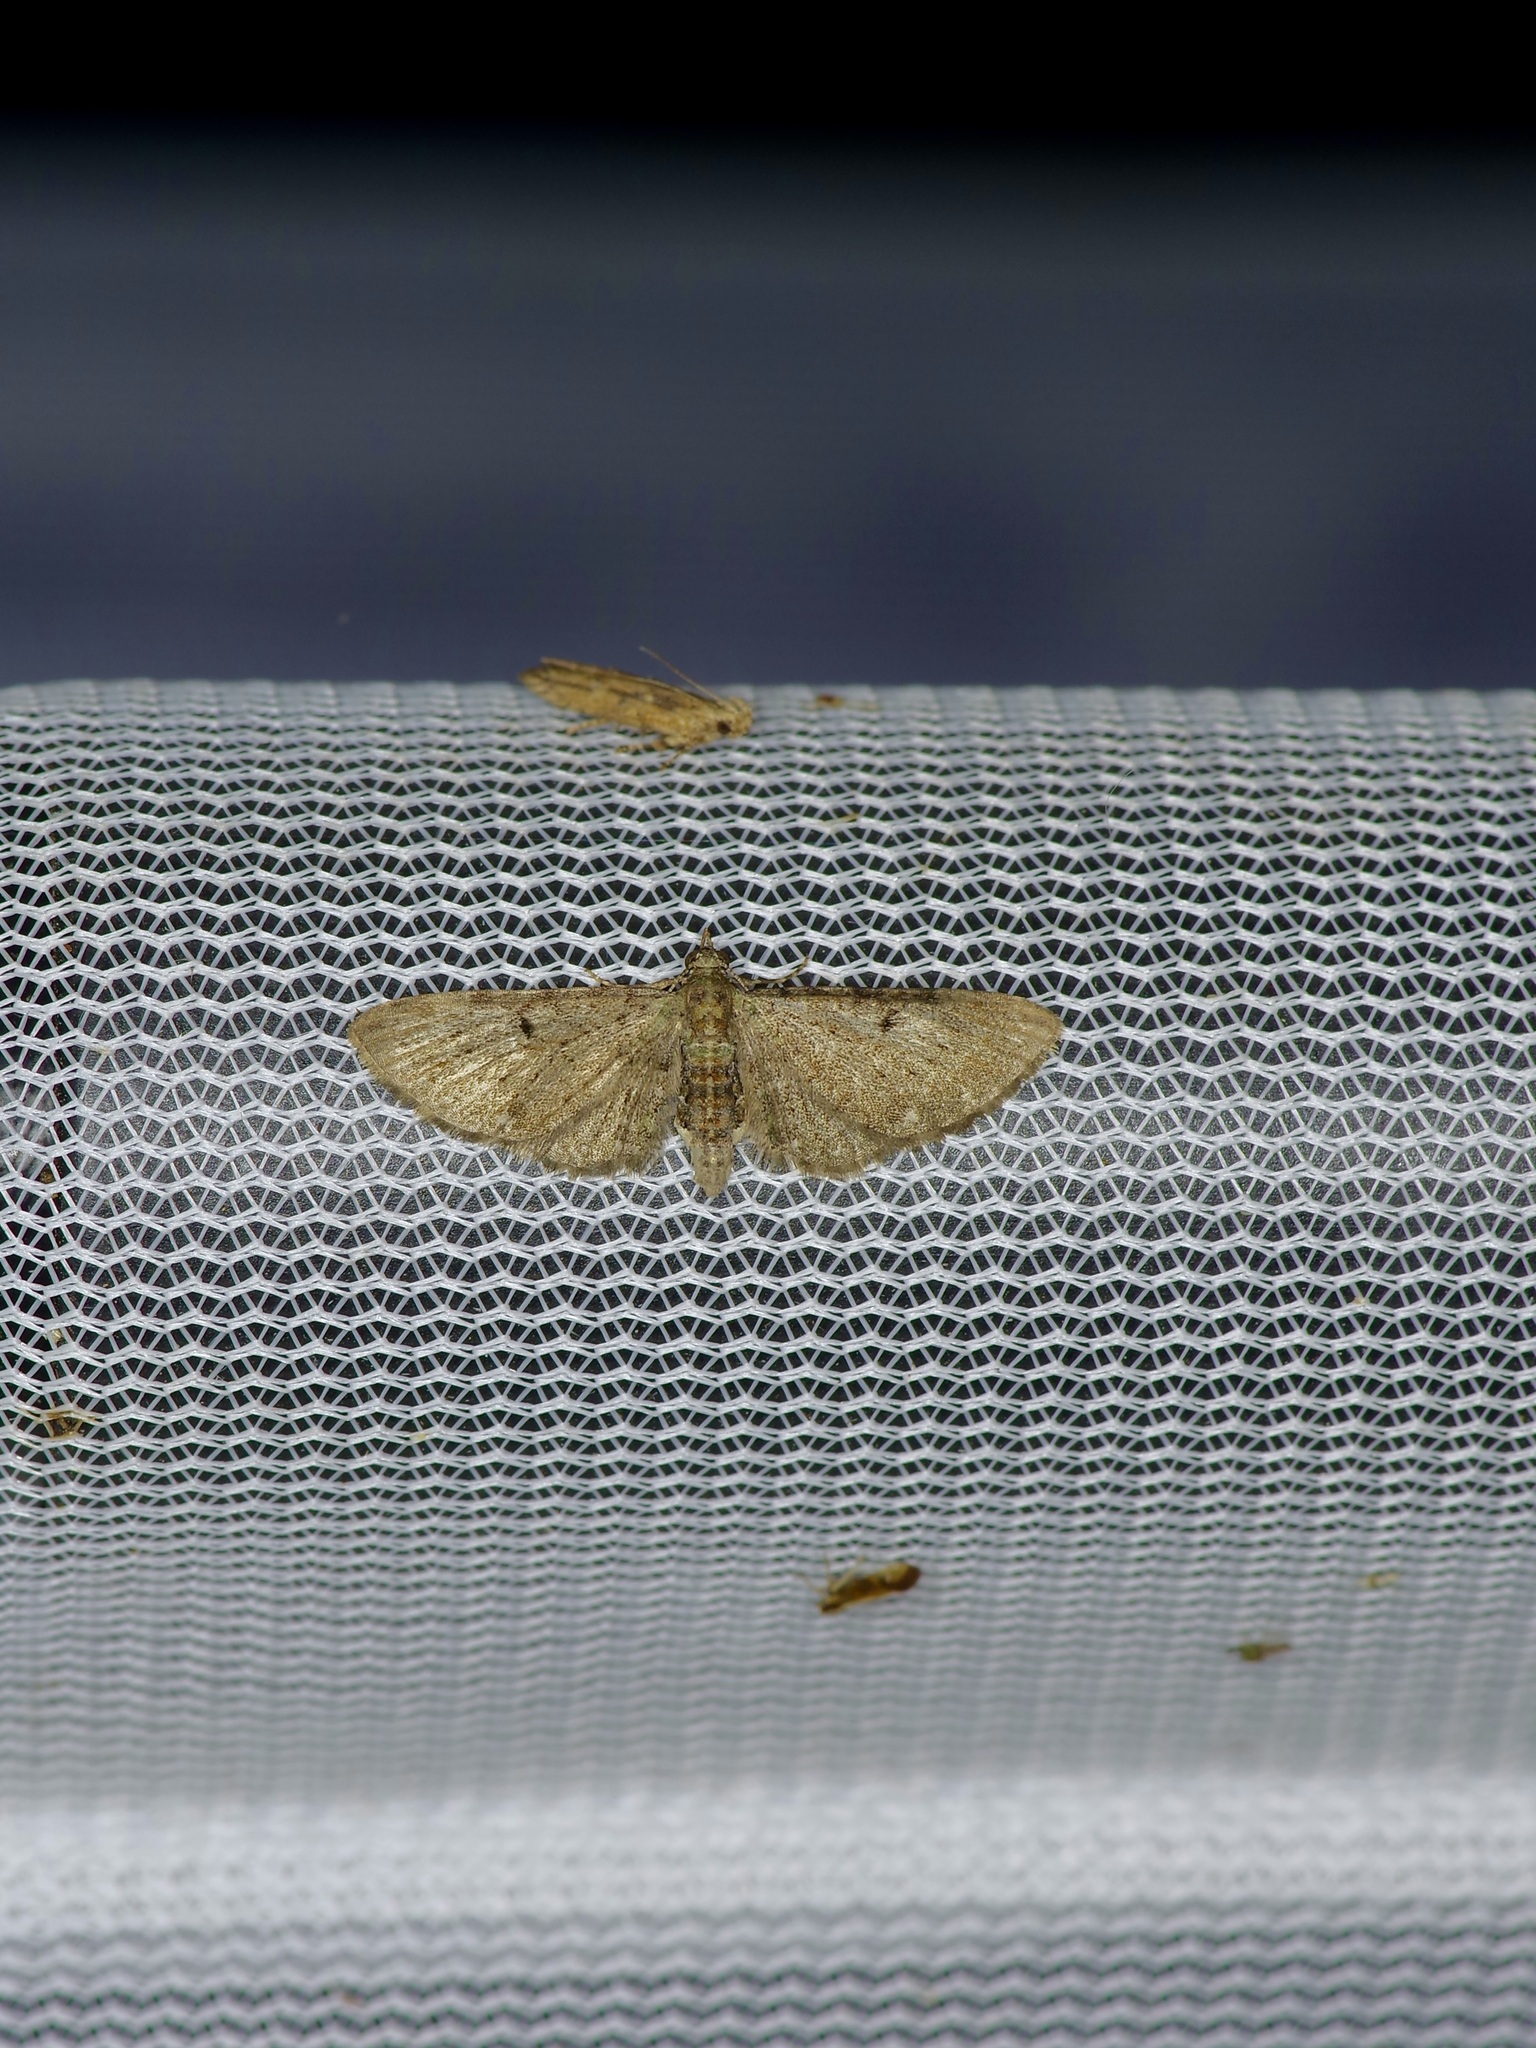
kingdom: Animalia
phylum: Arthropoda
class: Insecta
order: Lepidoptera
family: Geometridae
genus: Eupithecia
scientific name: Eupithecia miserulata
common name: Common eupithecia
